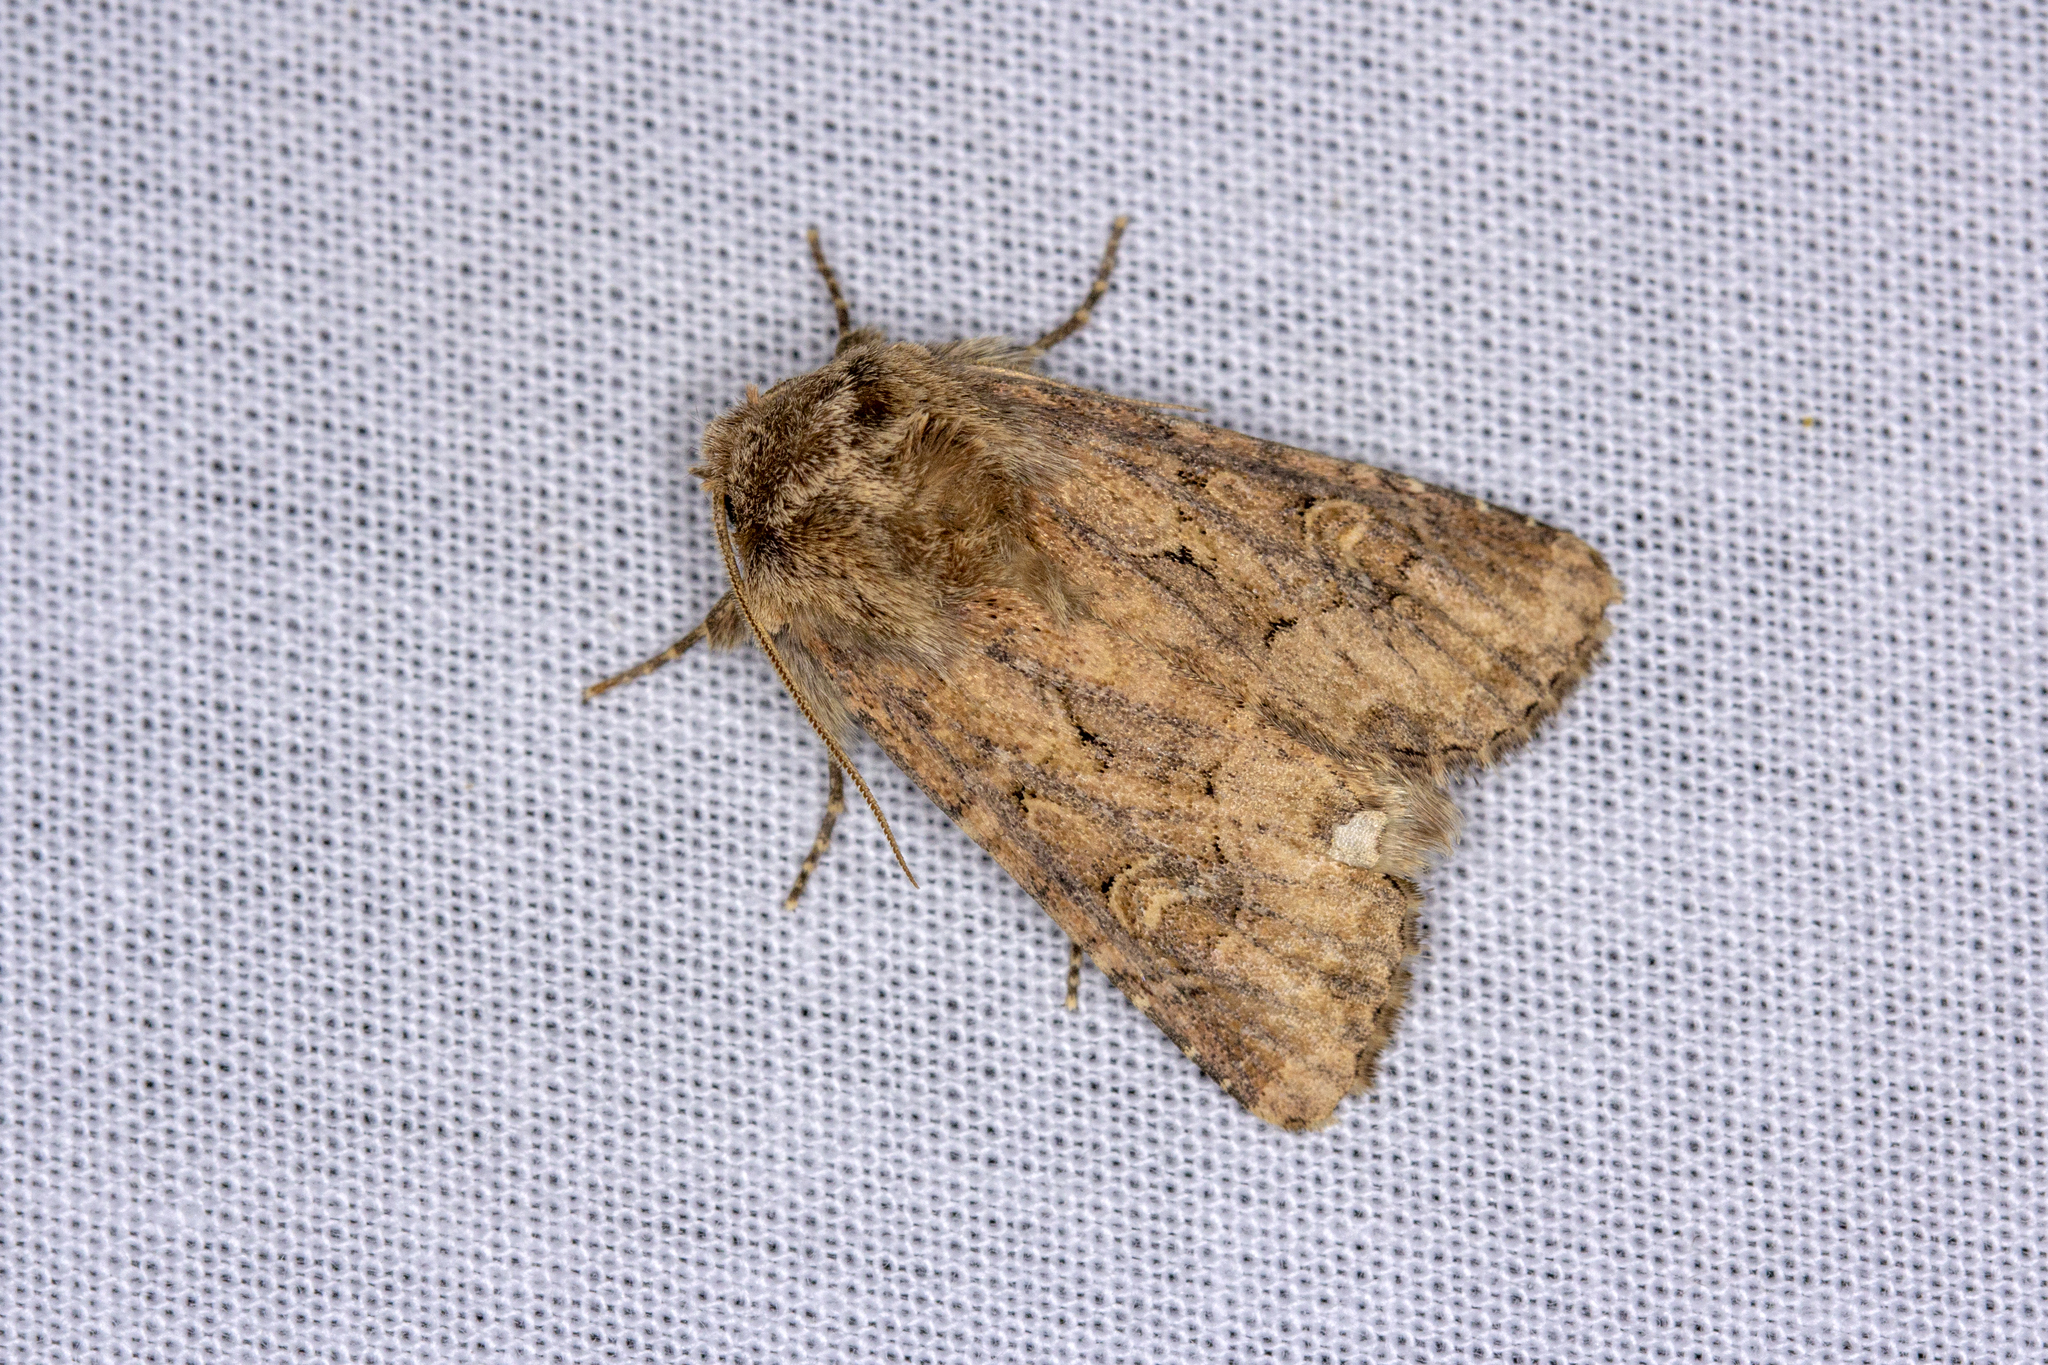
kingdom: Animalia
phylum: Arthropoda
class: Insecta
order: Lepidoptera
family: Noctuidae
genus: Luperina
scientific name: Luperina testacea
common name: Flounced rustic
